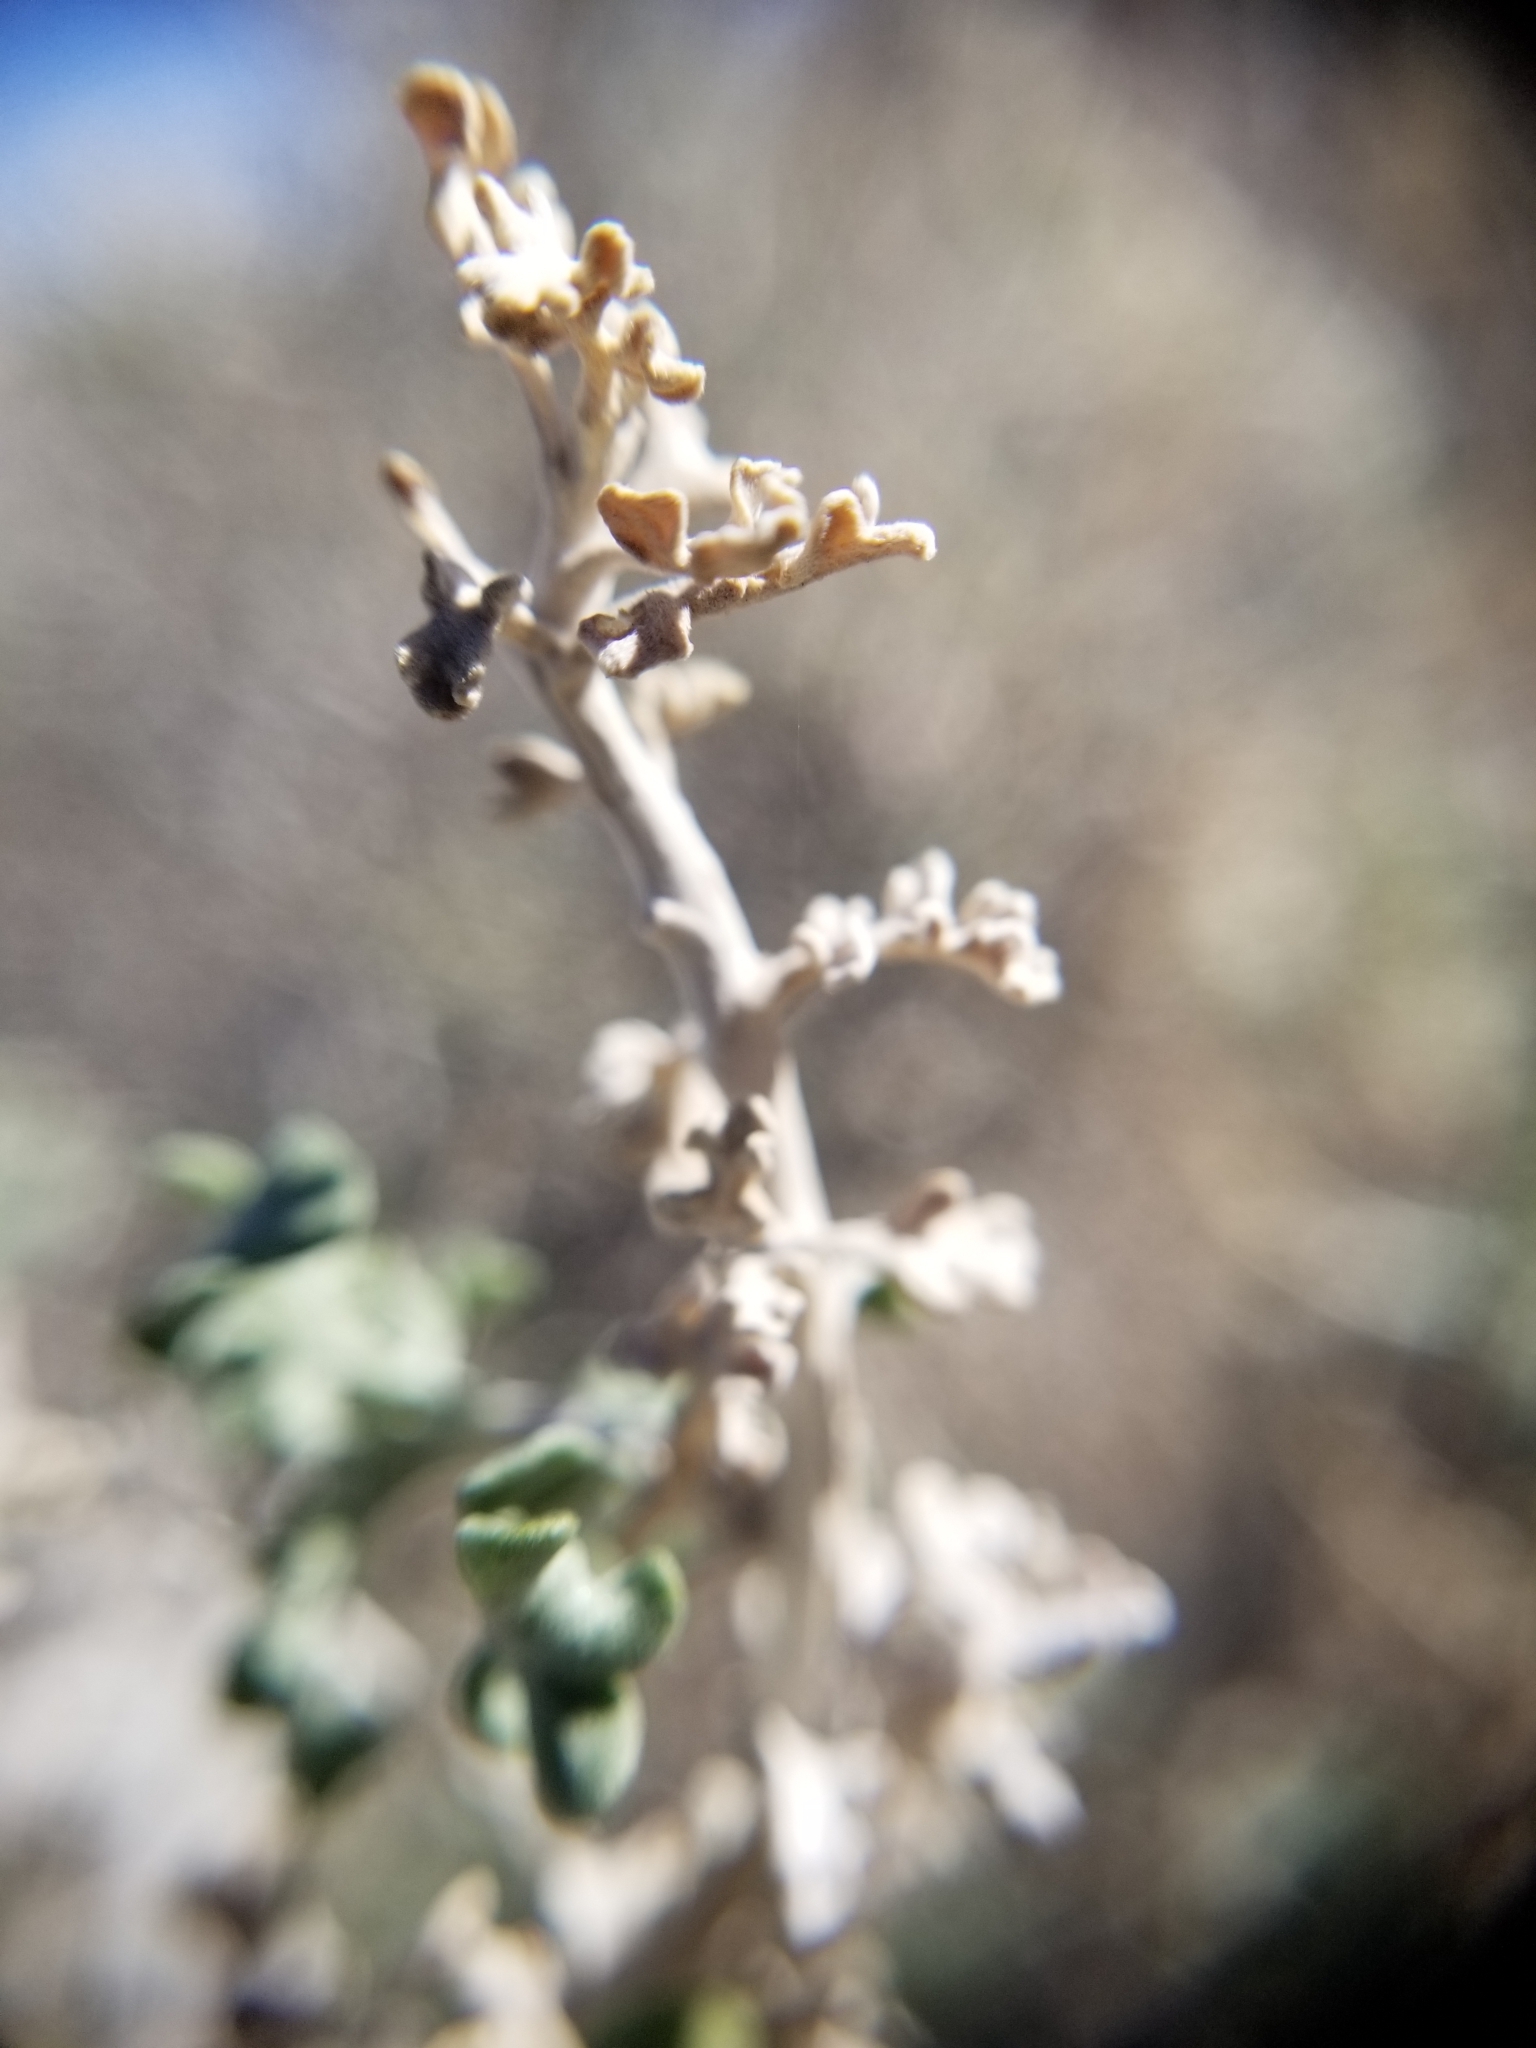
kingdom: Plantae
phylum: Tracheophyta
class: Magnoliopsida
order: Asterales
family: Asteraceae
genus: Ambrosia
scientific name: Ambrosia dumosa
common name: Bur-sage
